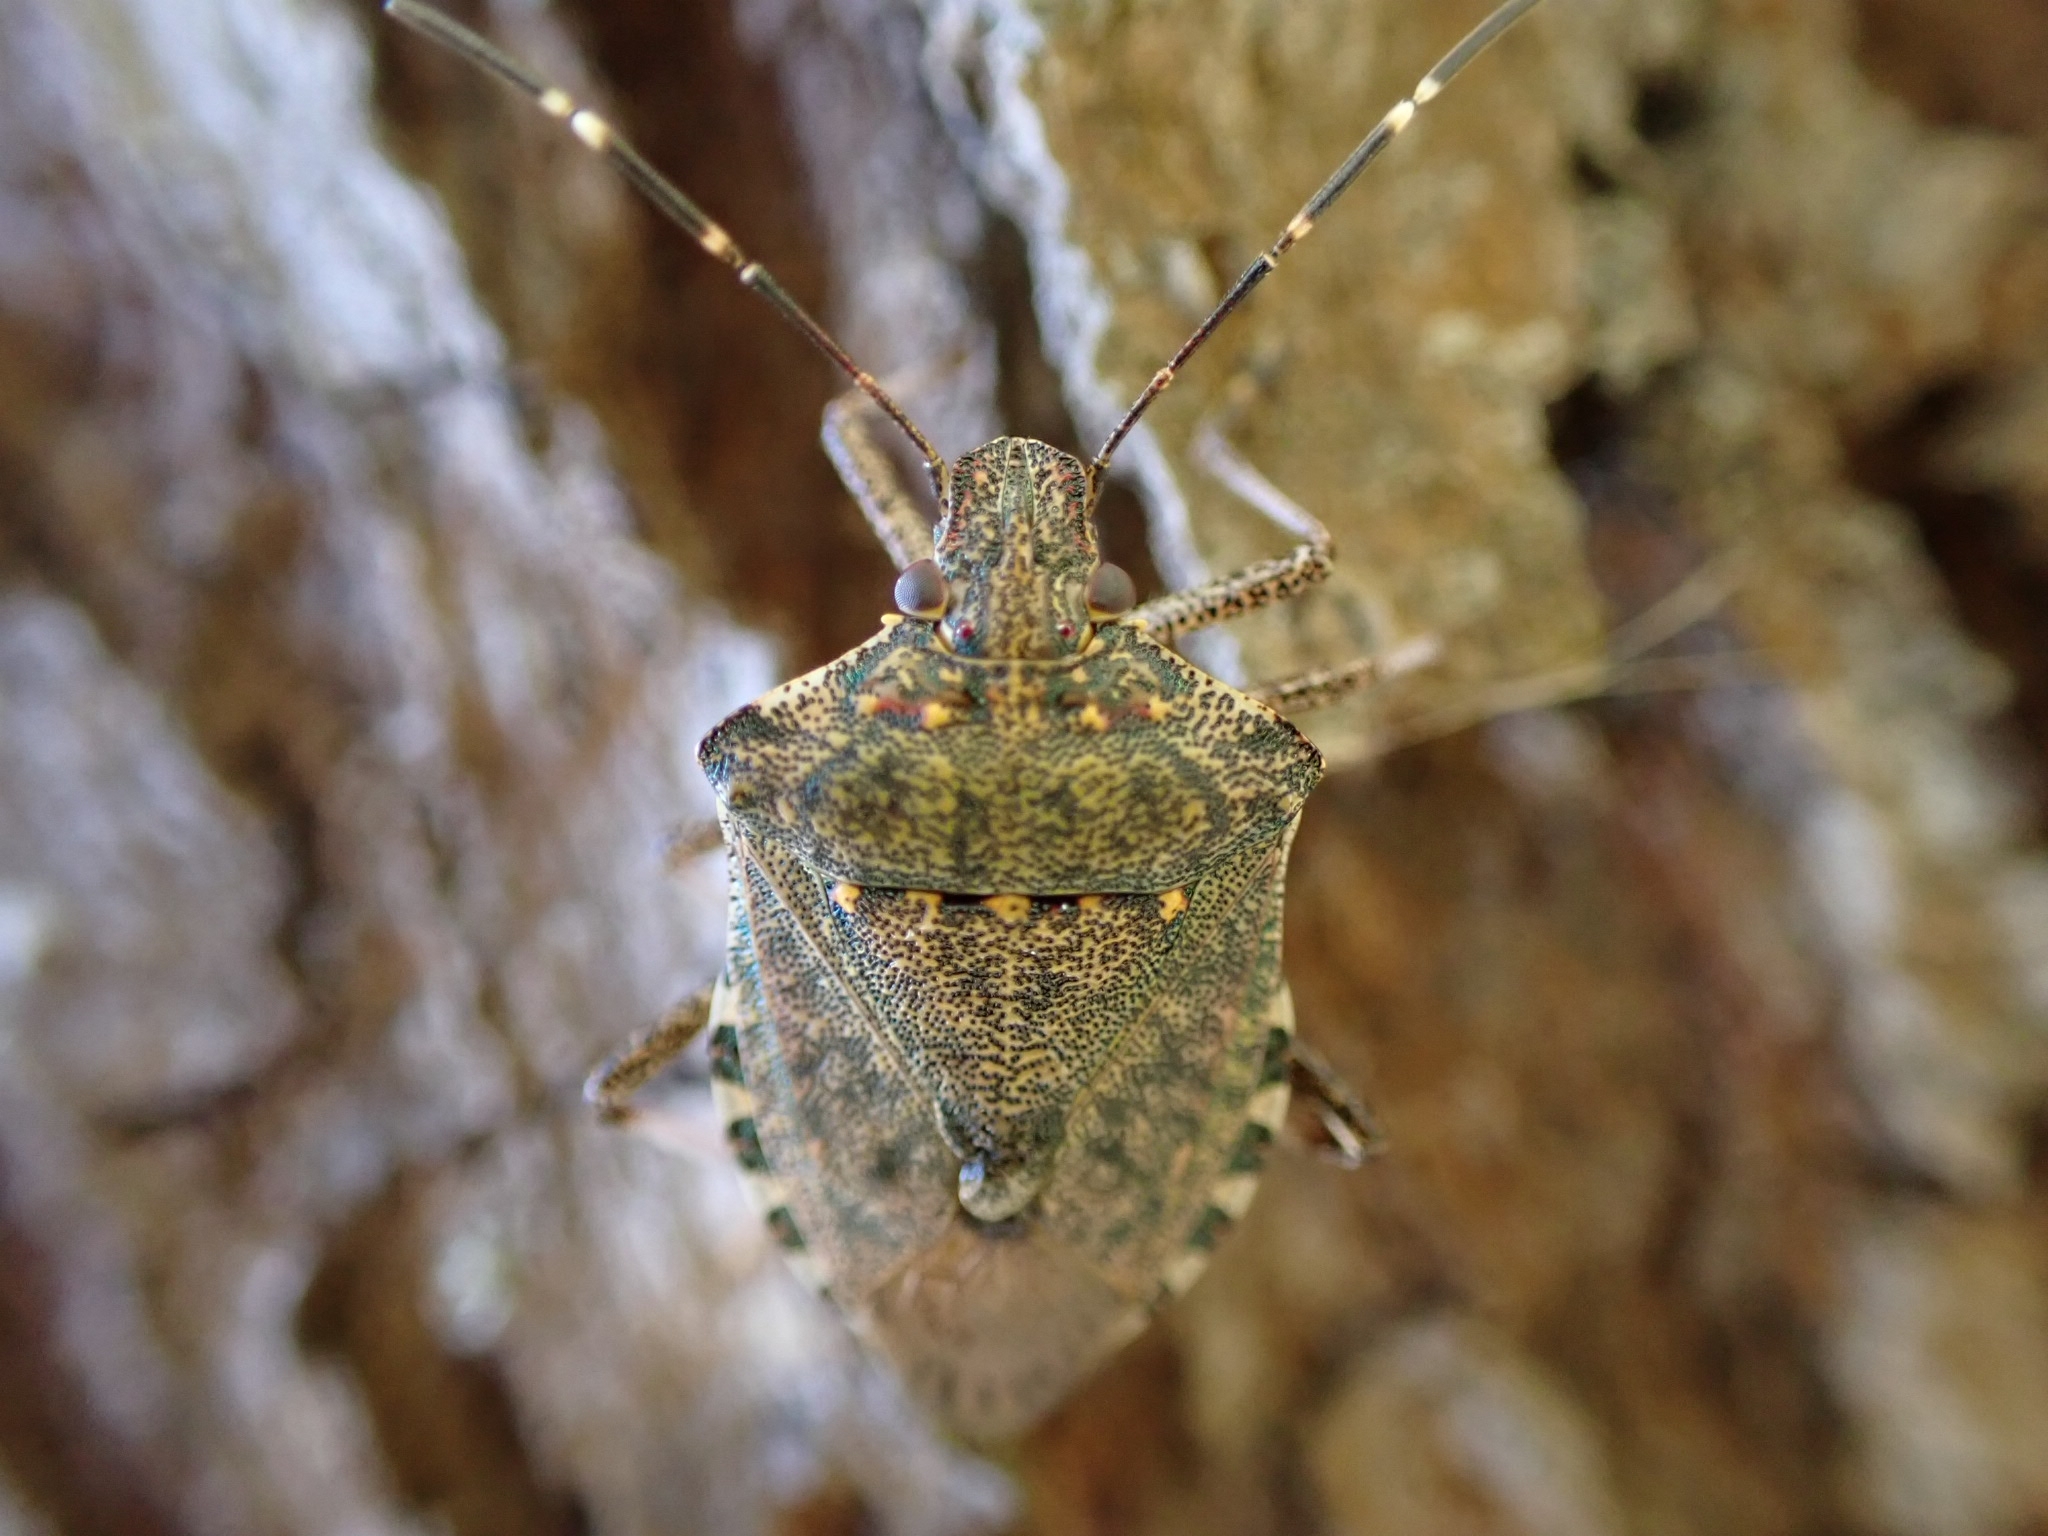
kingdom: Animalia
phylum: Arthropoda
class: Insecta
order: Hemiptera
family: Pentatomidae
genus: Halyomorpha
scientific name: Halyomorpha halys
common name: Brown marmorated stink bug
